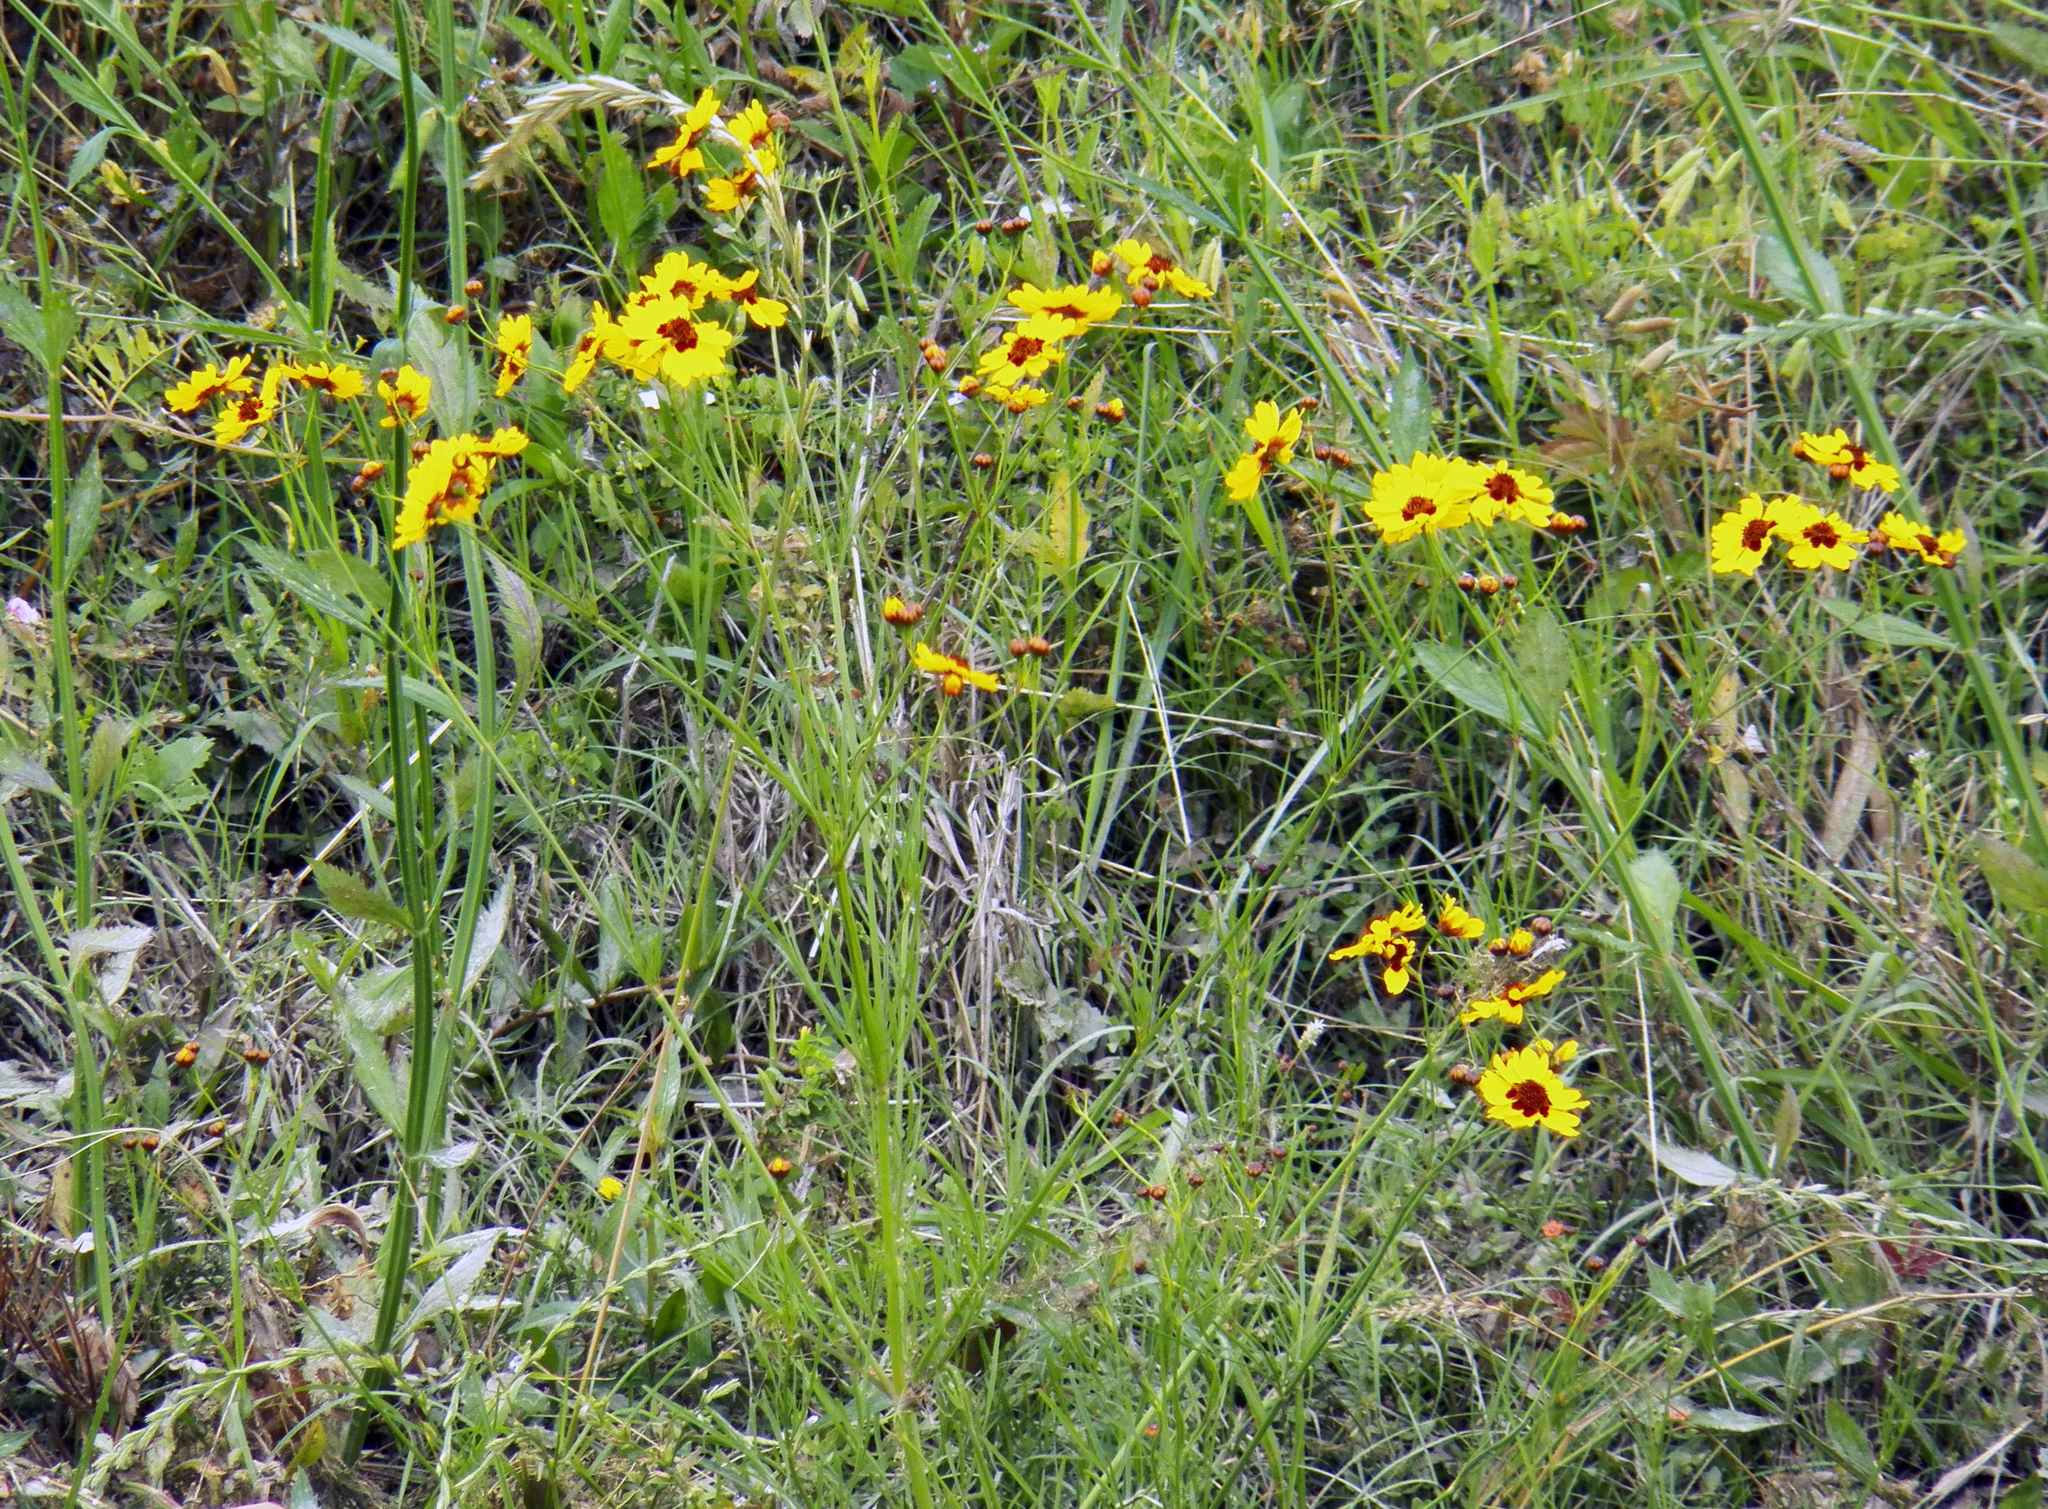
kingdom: Plantae
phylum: Tracheophyta
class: Magnoliopsida
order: Asterales
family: Asteraceae
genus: Coreopsis
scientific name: Coreopsis tinctoria
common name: Garden tickseed
